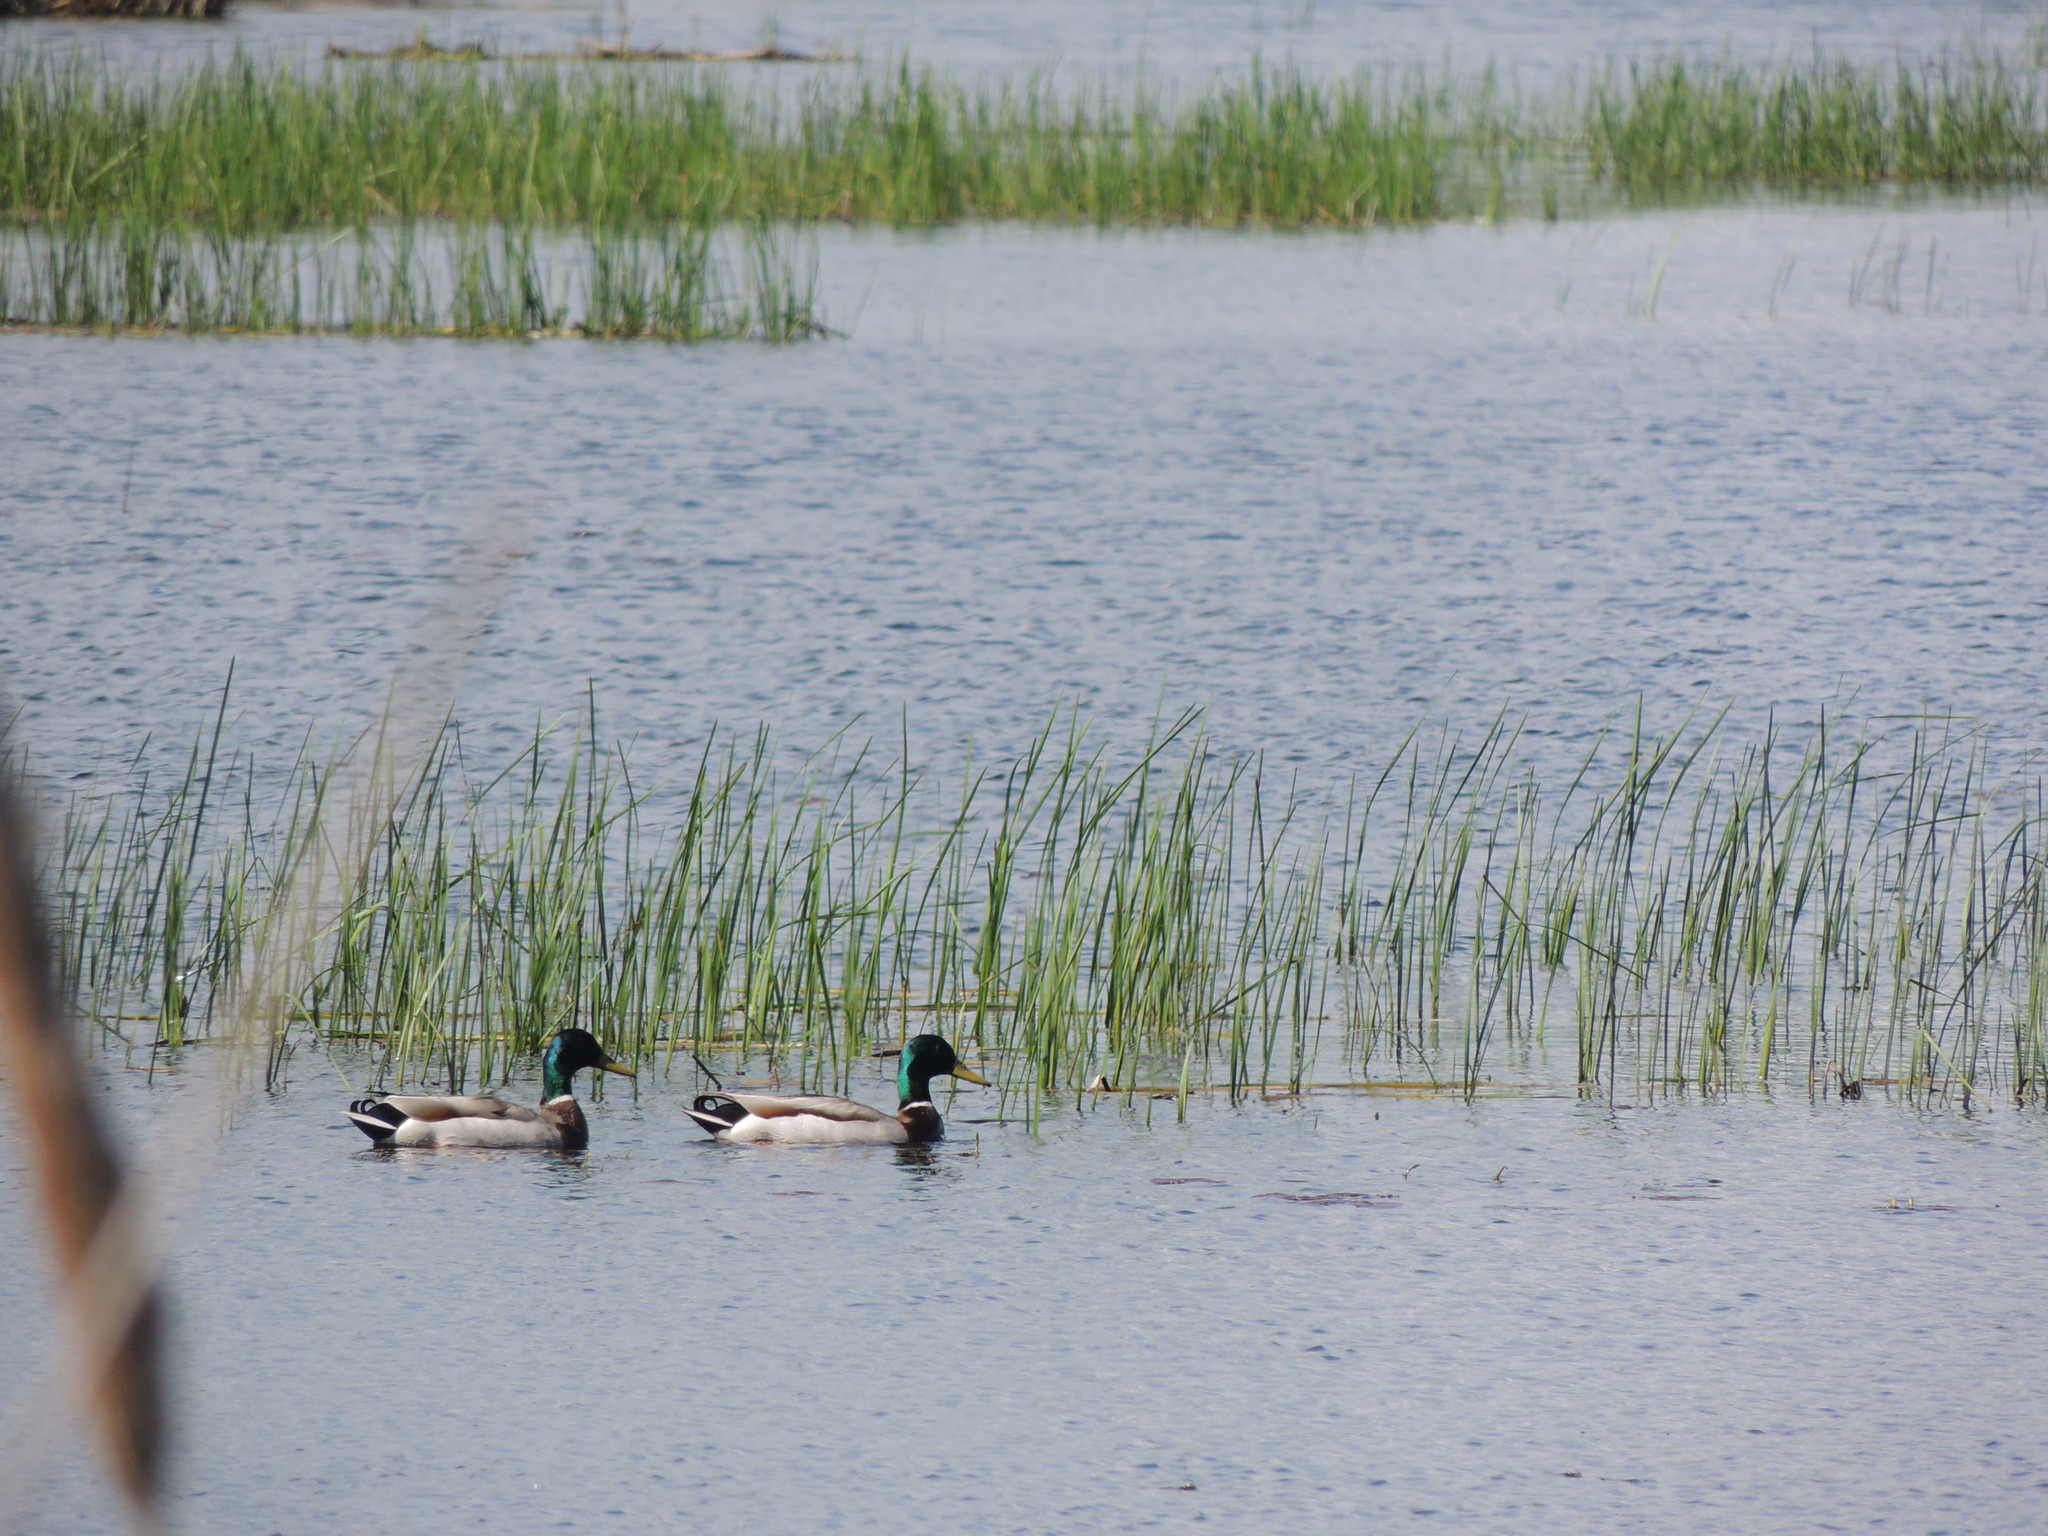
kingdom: Animalia
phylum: Chordata
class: Aves
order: Anseriformes
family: Anatidae
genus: Anas
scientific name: Anas platyrhynchos
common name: Mallard
